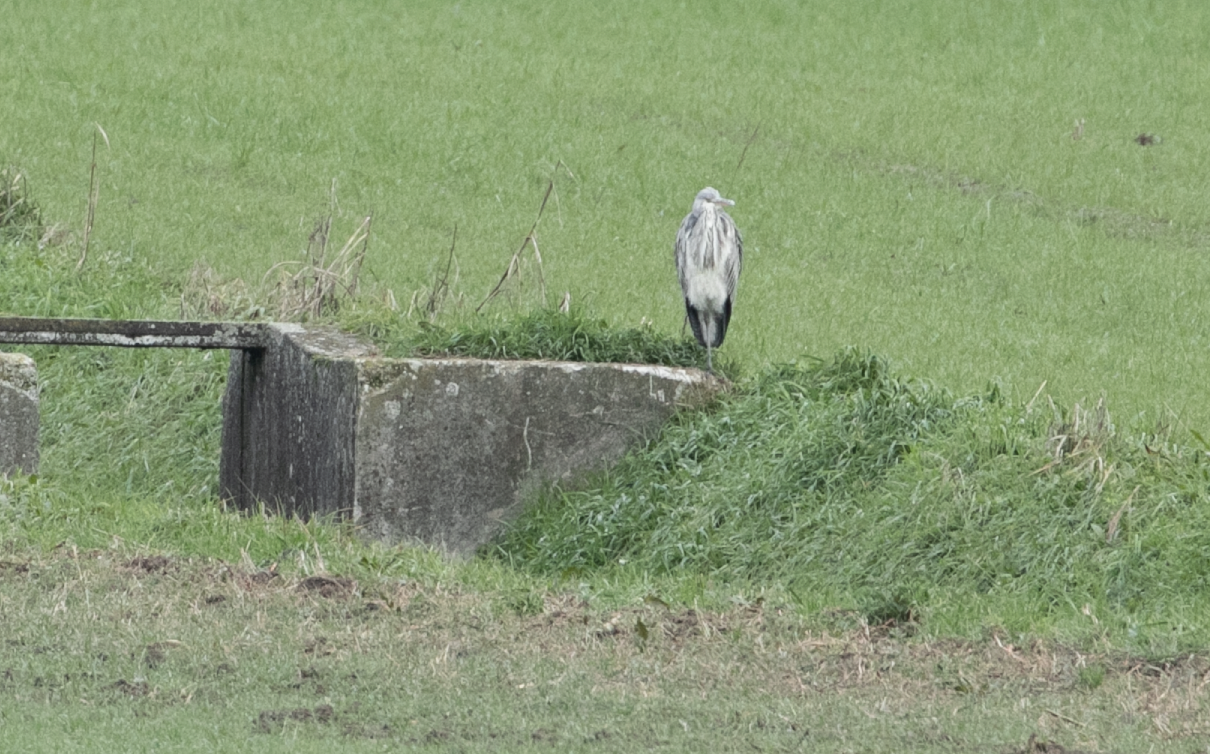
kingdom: Animalia
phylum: Chordata
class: Aves
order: Pelecaniformes
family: Ardeidae
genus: Ardea
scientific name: Ardea cinerea
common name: Grey heron
